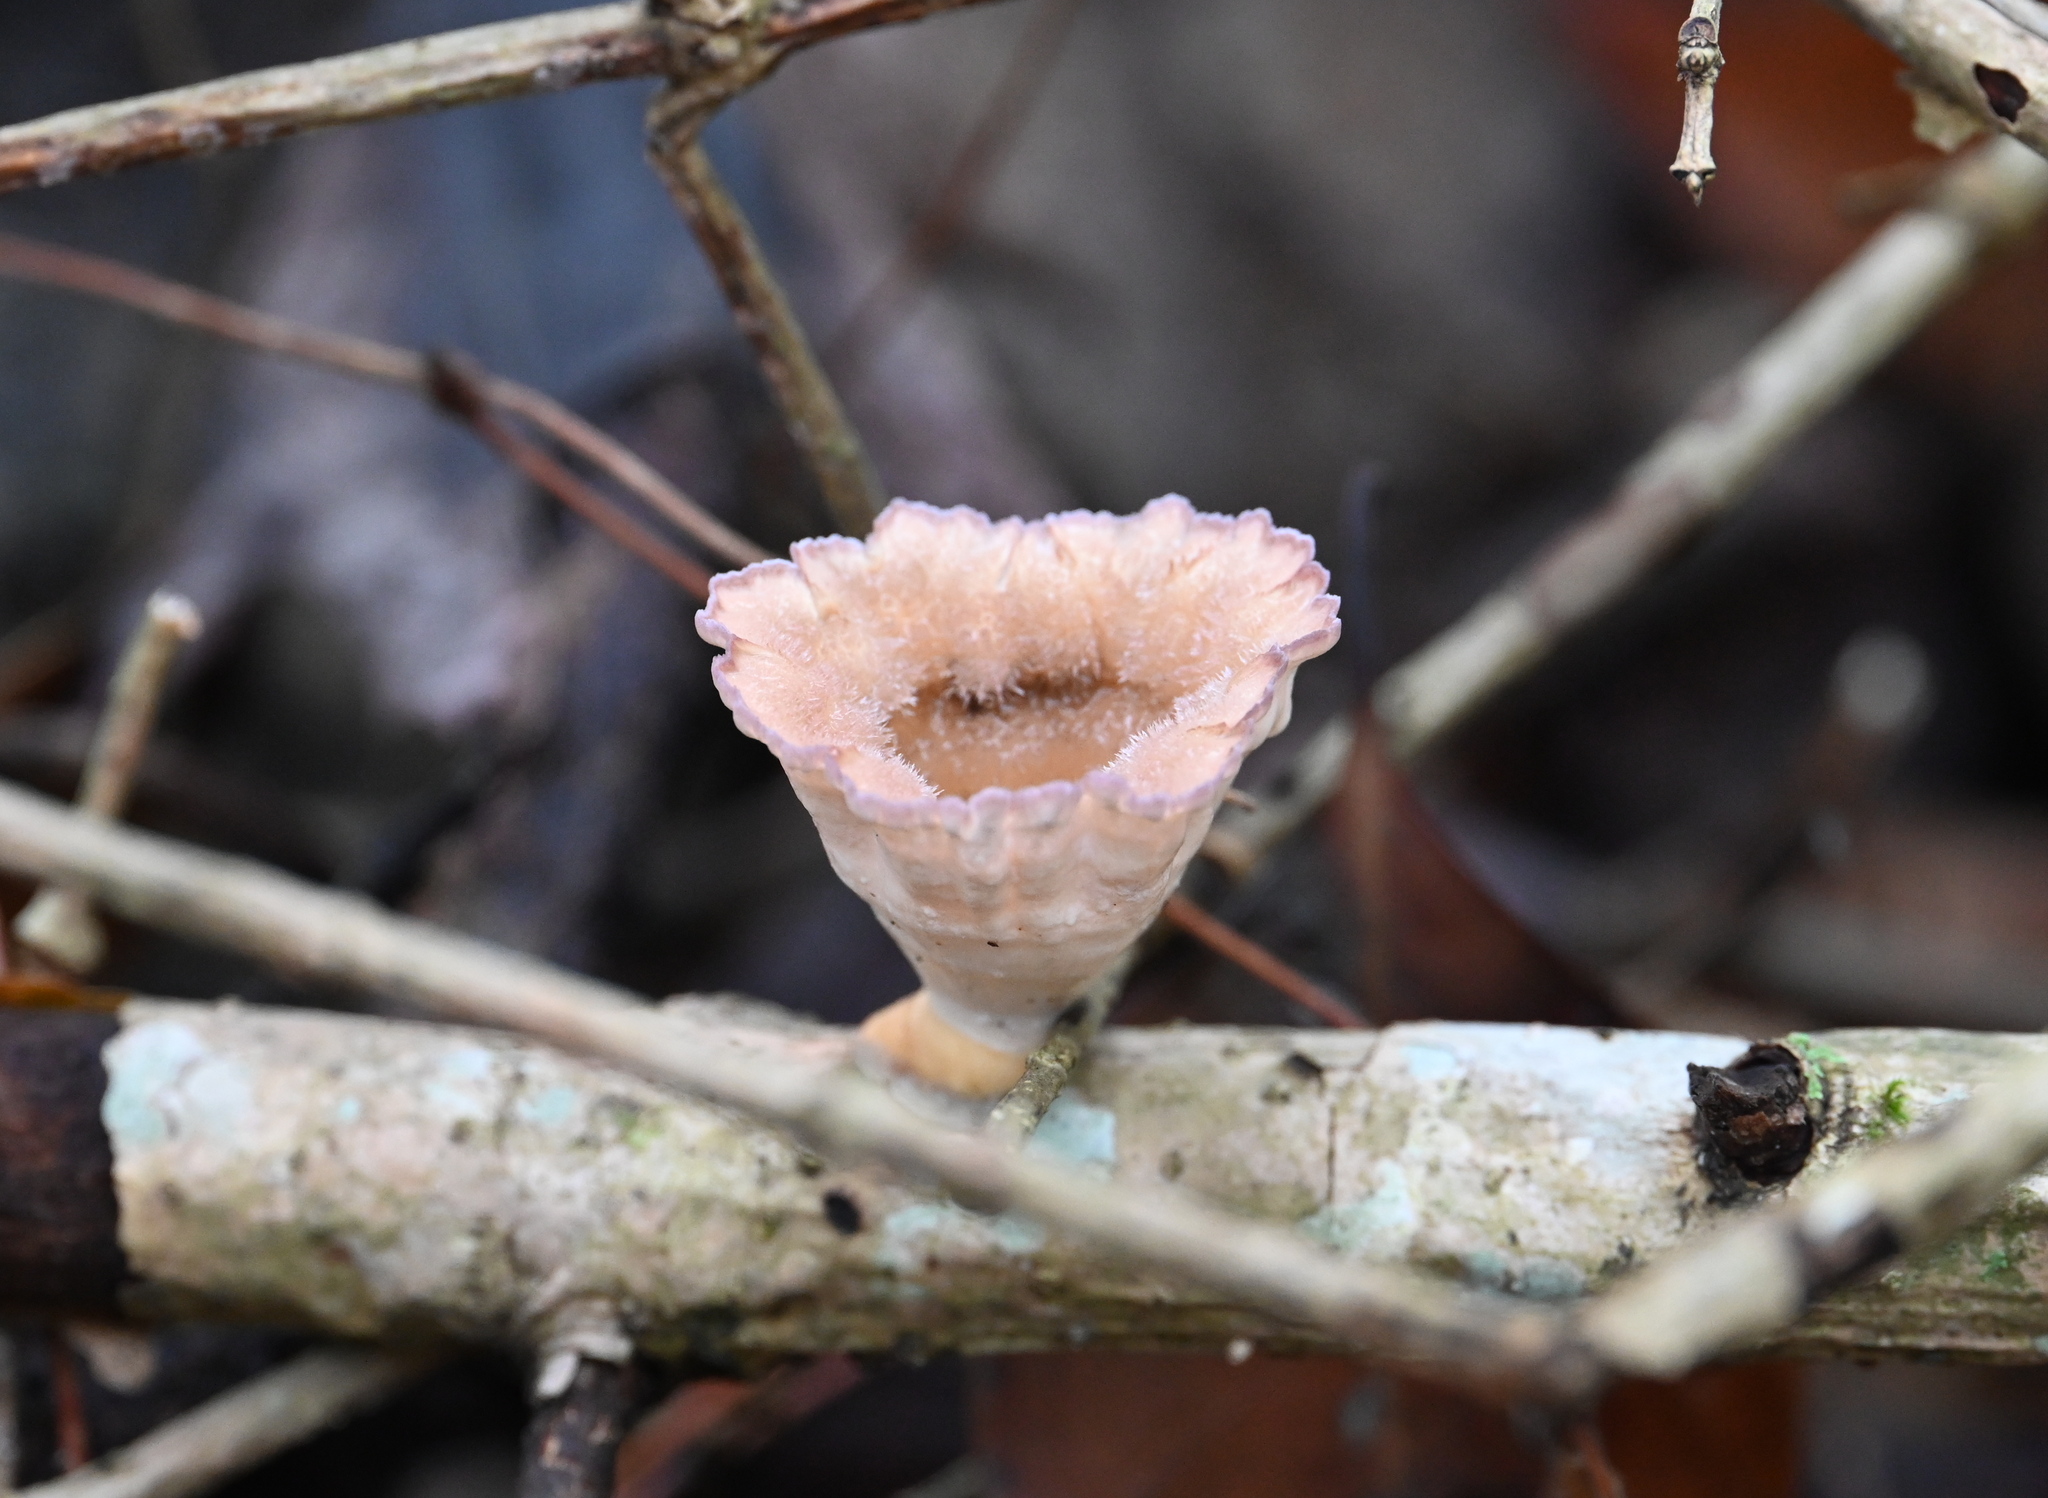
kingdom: Fungi
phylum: Basidiomycota
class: Agaricomycetes
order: Polyporales
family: Panaceae
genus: Cymatoderma
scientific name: Cymatoderma caperatum
